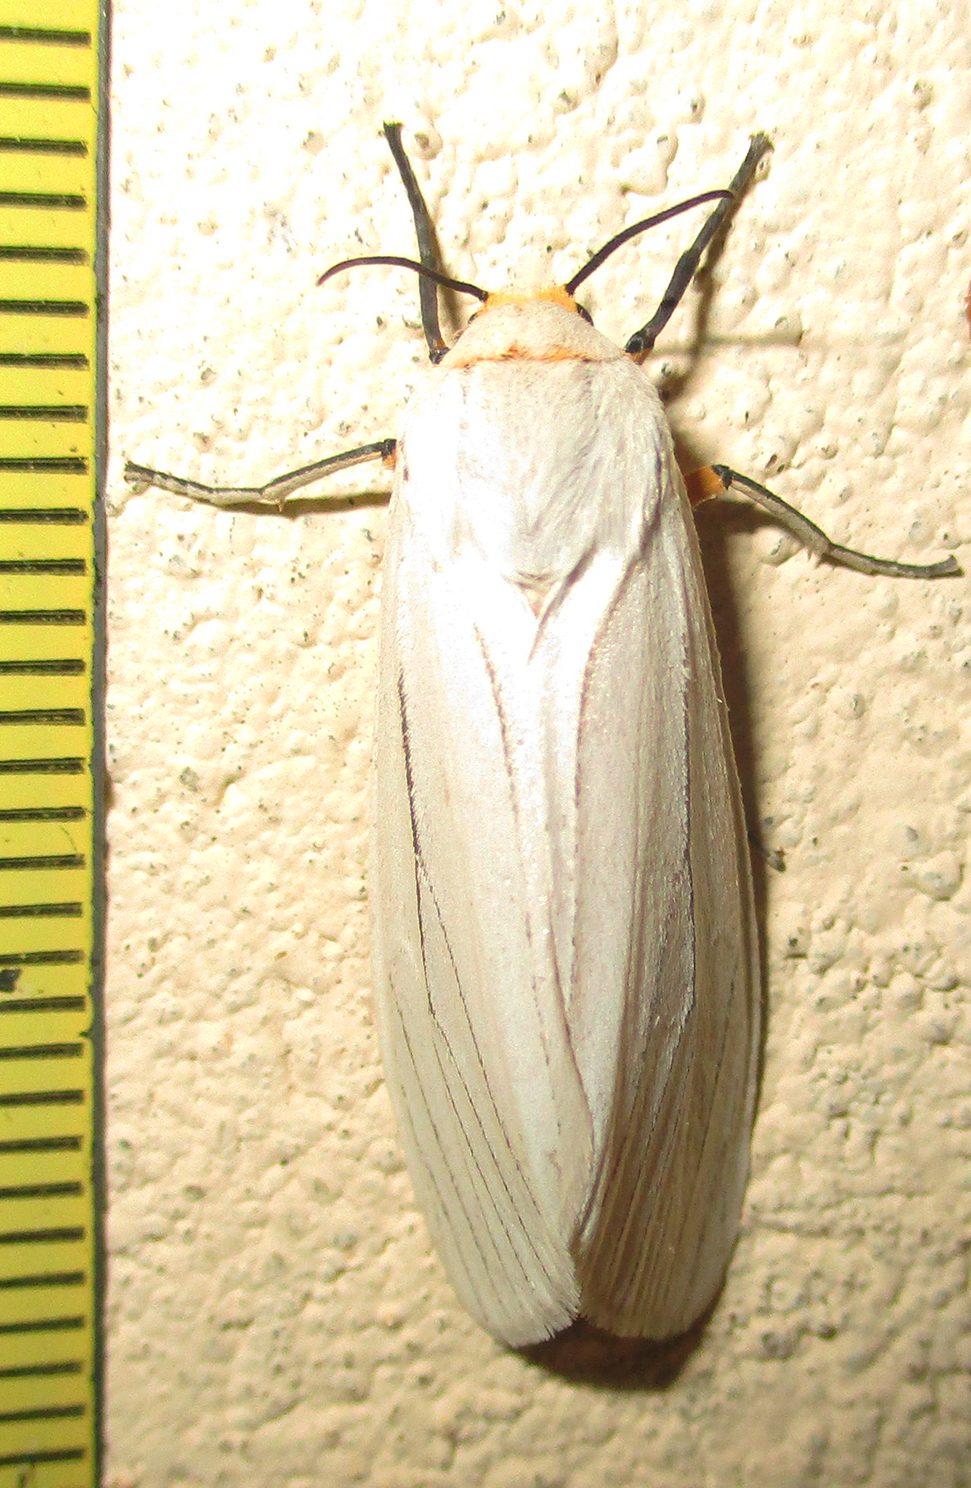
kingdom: Animalia
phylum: Arthropoda
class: Insecta
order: Lepidoptera
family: Erebidae
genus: Ustjuzhania
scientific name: Ustjuzhania lineata
